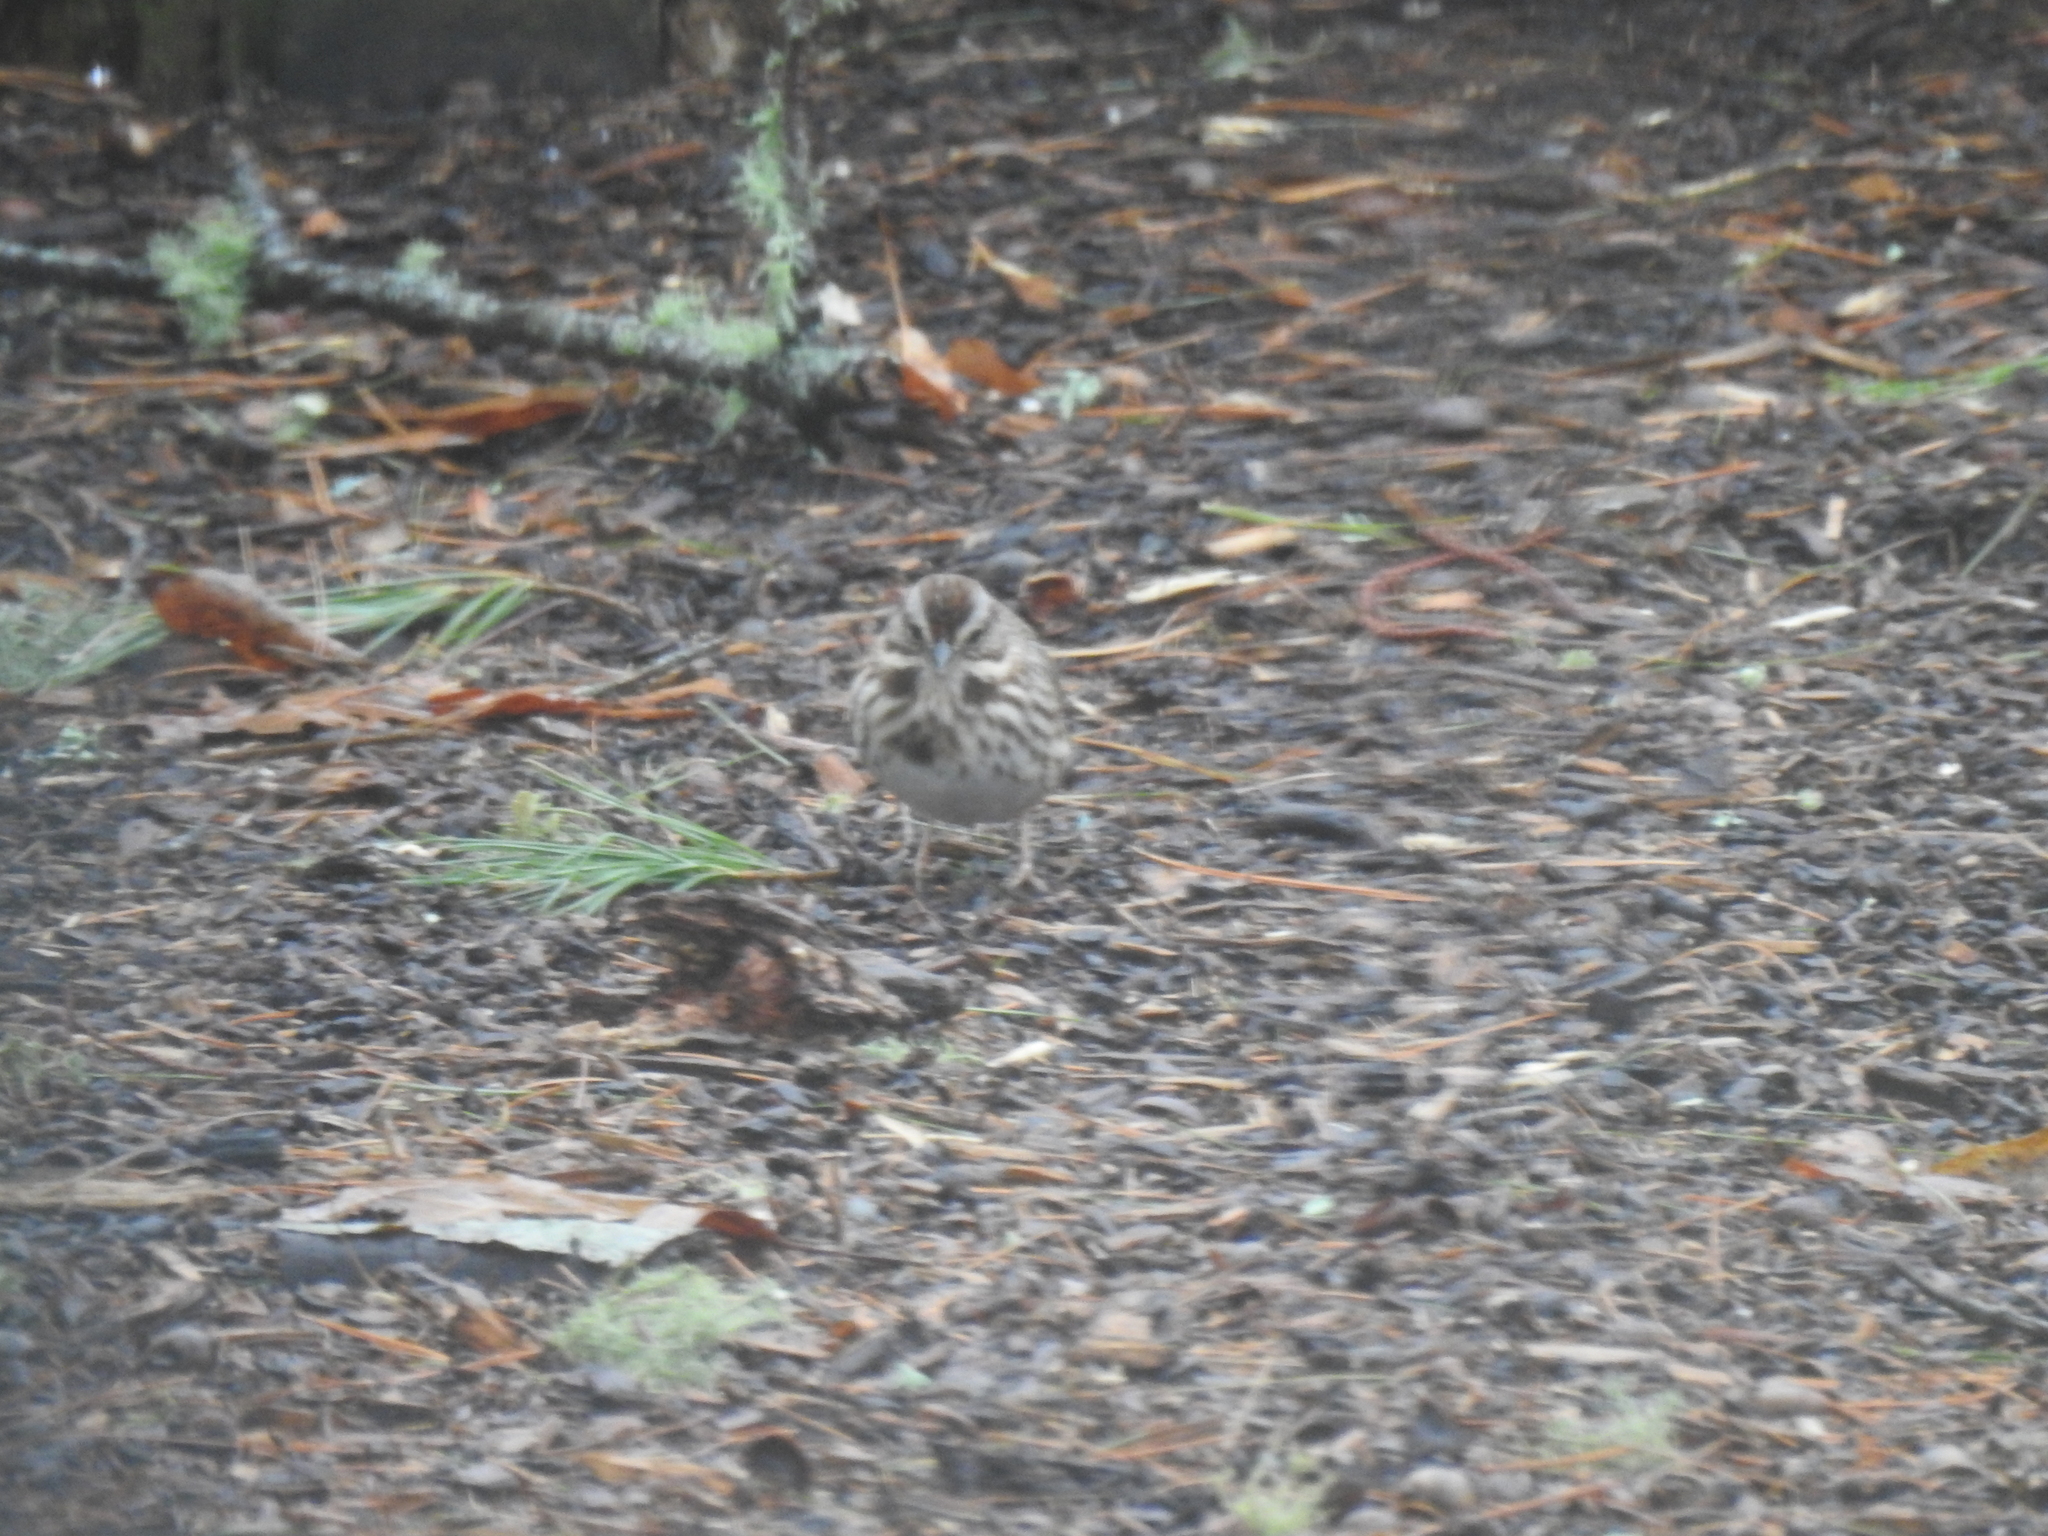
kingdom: Animalia
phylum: Chordata
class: Aves
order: Passeriformes
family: Passerellidae
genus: Melospiza
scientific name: Melospiza melodia
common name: Song sparrow
